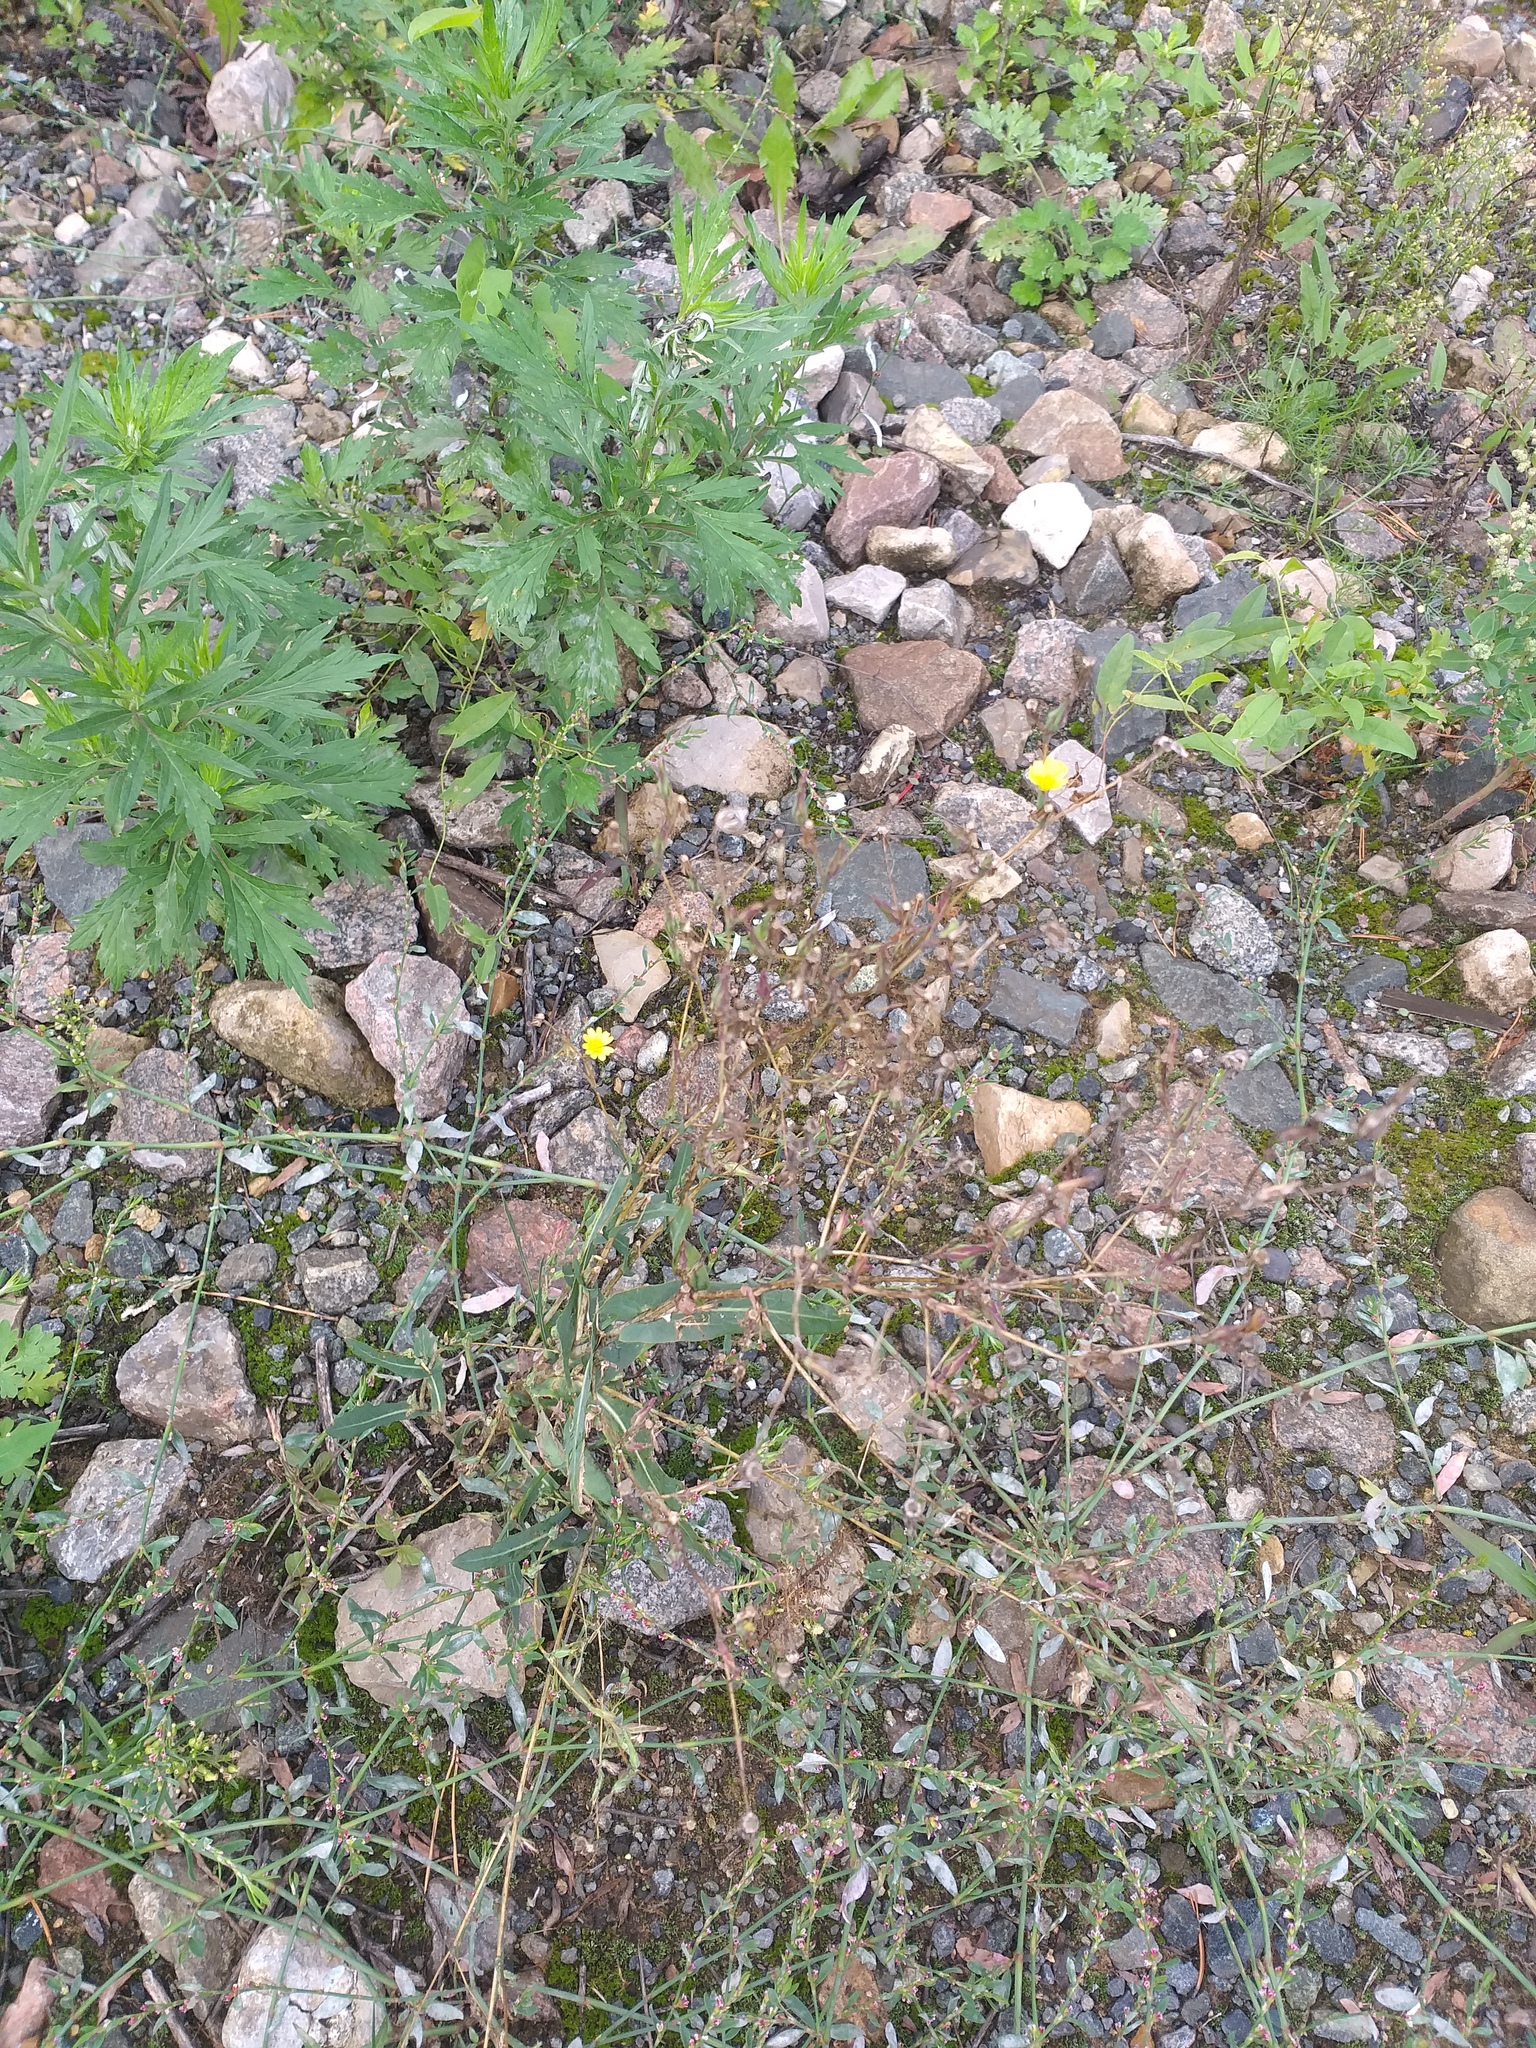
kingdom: Plantae
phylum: Tracheophyta
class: Magnoliopsida
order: Asterales
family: Asteraceae
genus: Lactuca
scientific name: Lactuca serriola
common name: Prickly lettuce
